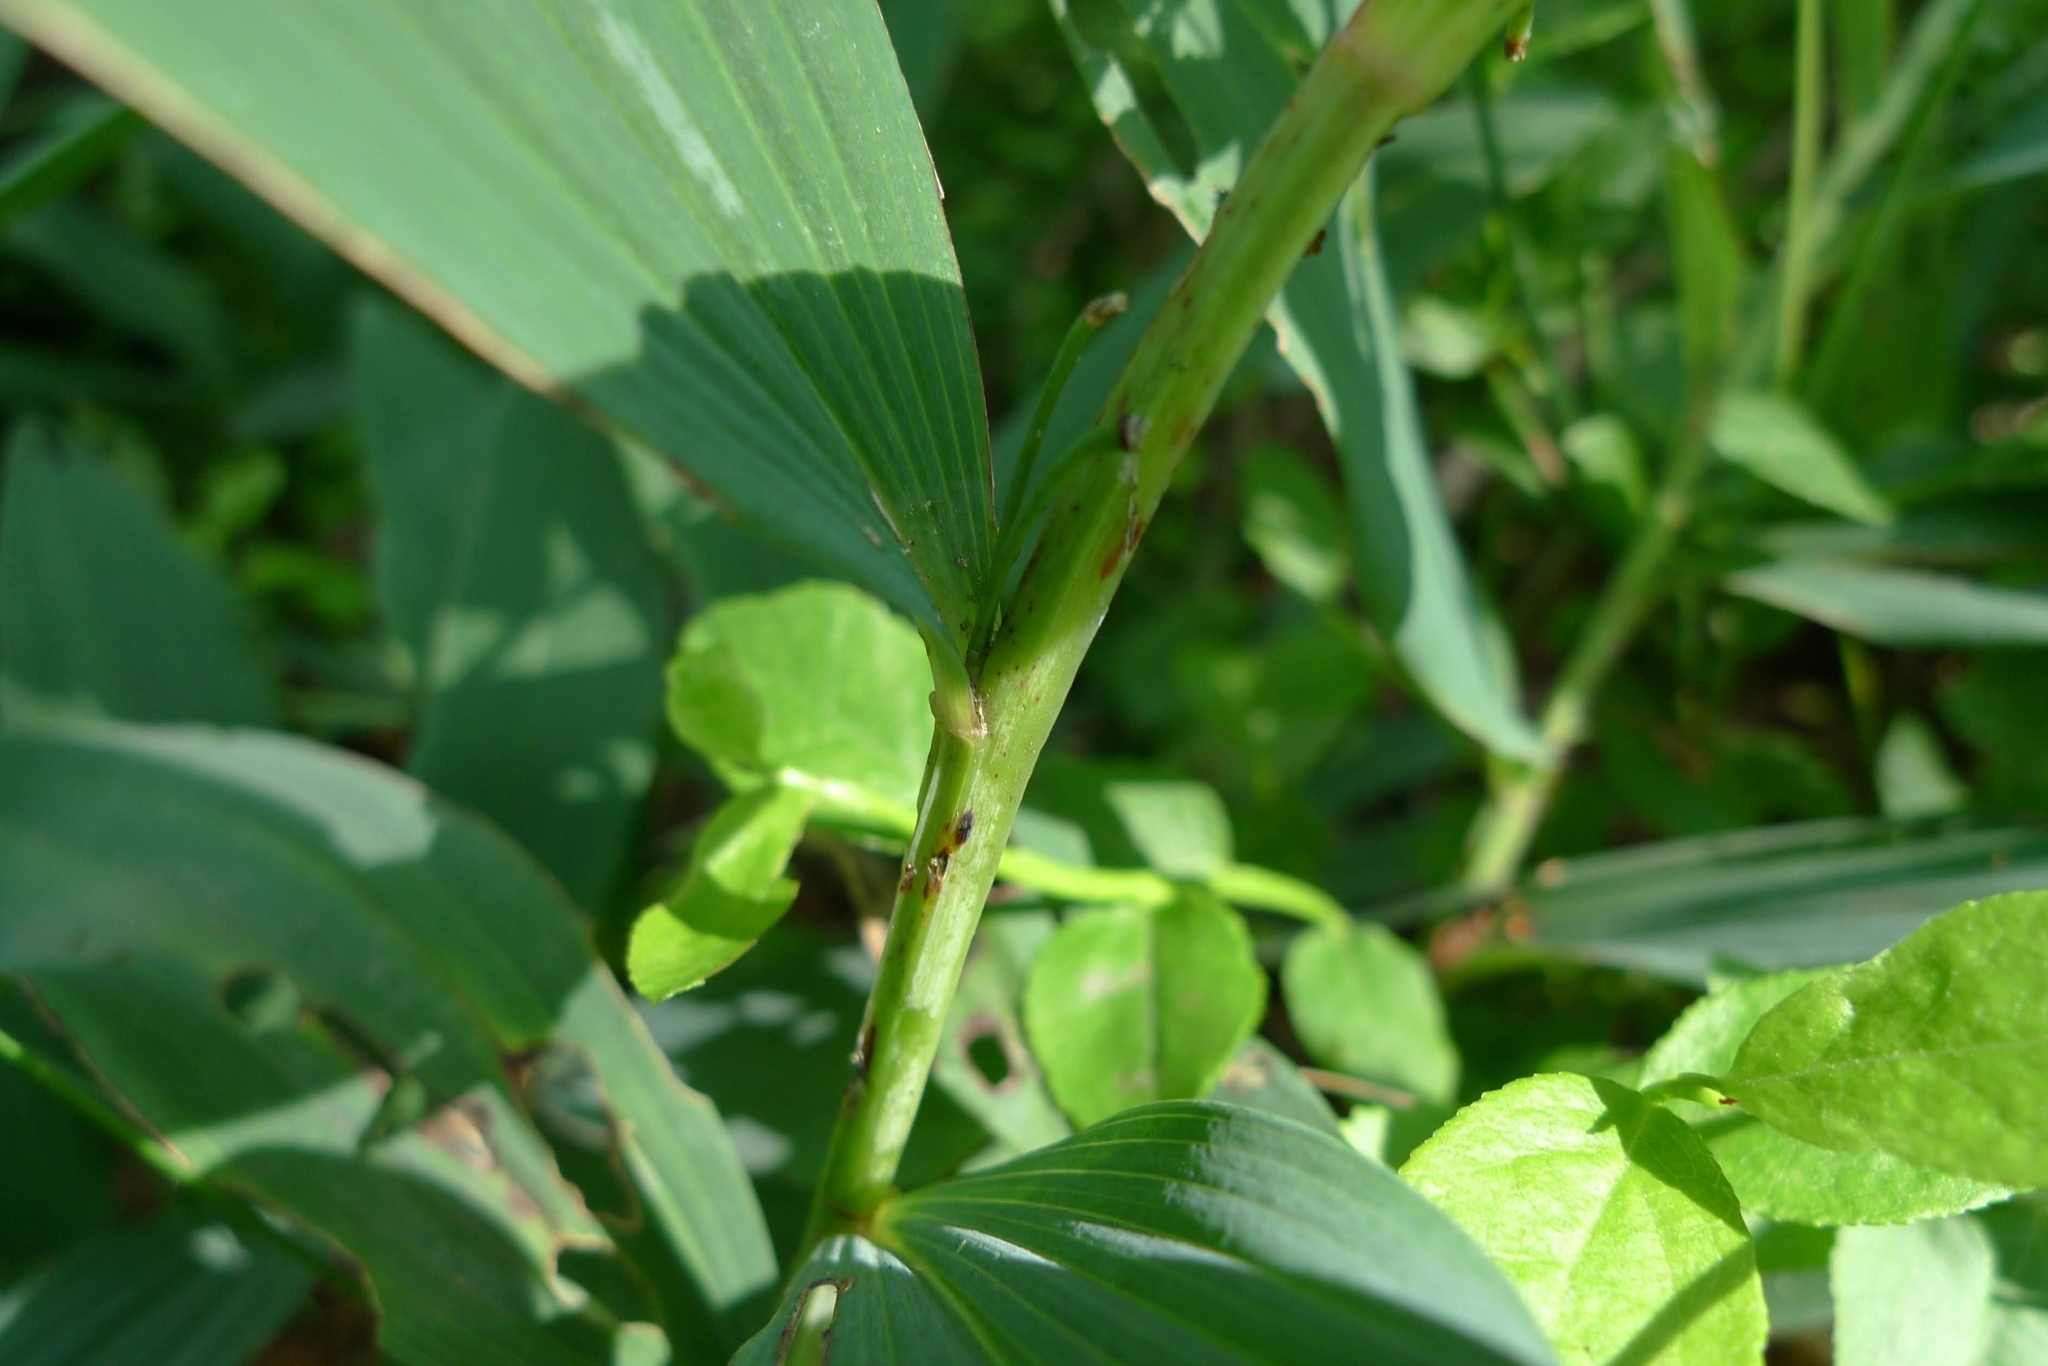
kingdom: Plantae
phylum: Tracheophyta
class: Liliopsida
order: Asparagales
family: Asparagaceae
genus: Polygonatum
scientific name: Polygonatum odoratum
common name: Angular solomon's-seal
